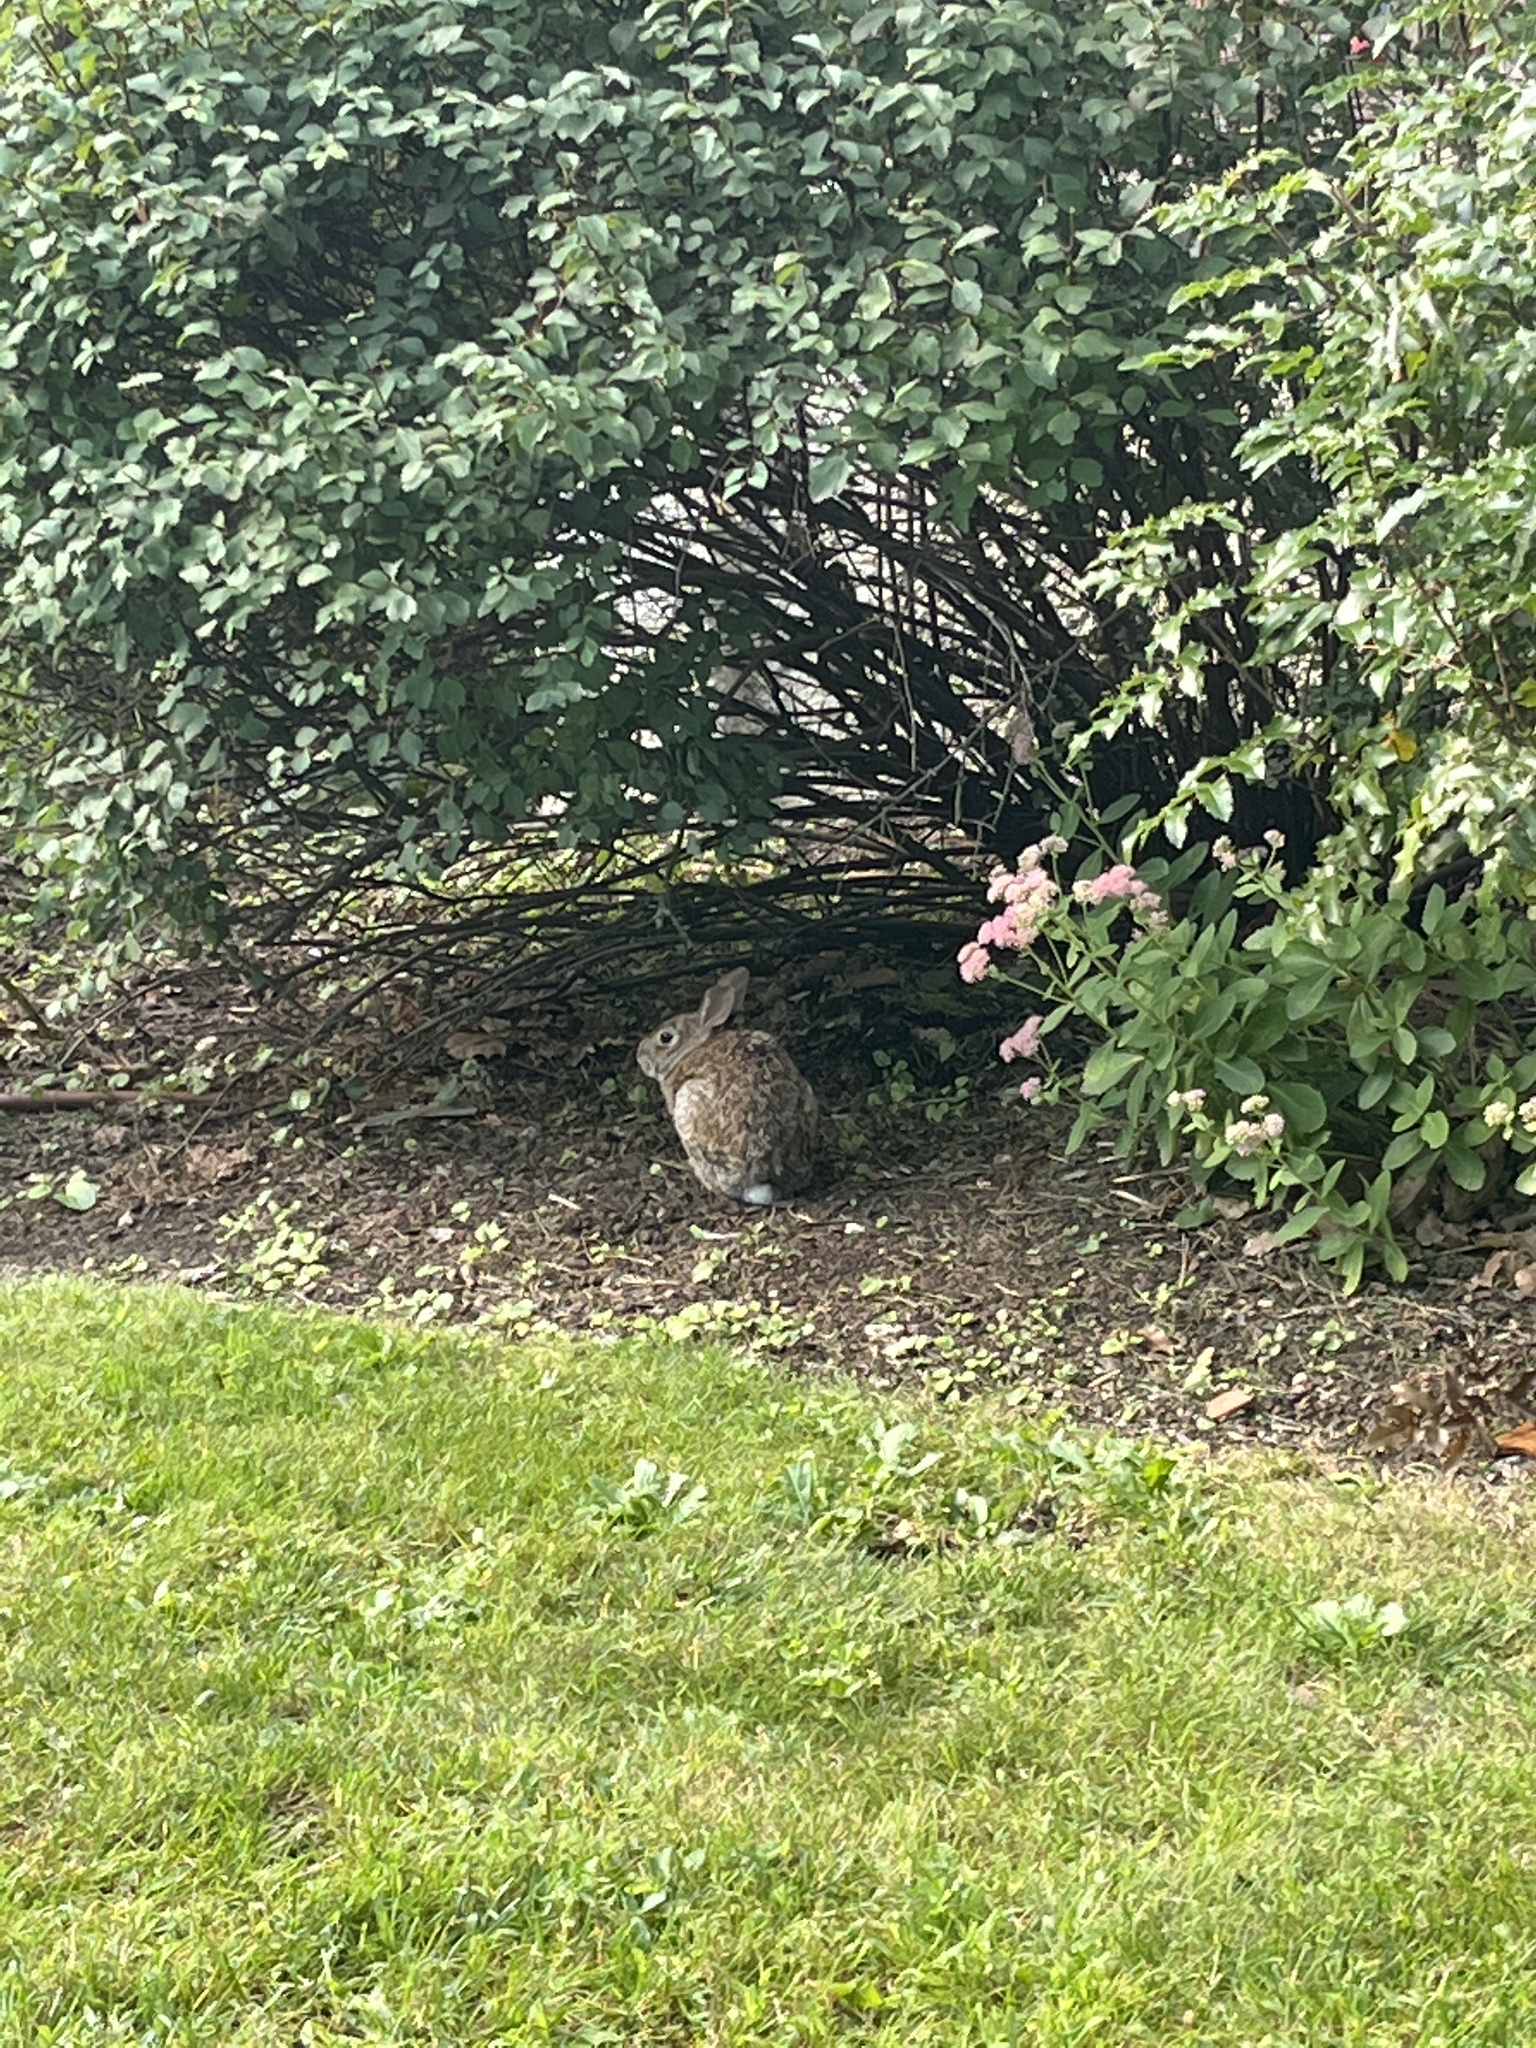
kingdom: Animalia
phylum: Chordata
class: Mammalia
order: Lagomorpha
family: Leporidae
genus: Sylvilagus
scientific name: Sylvilagus floridanus
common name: Eastern cottontail
